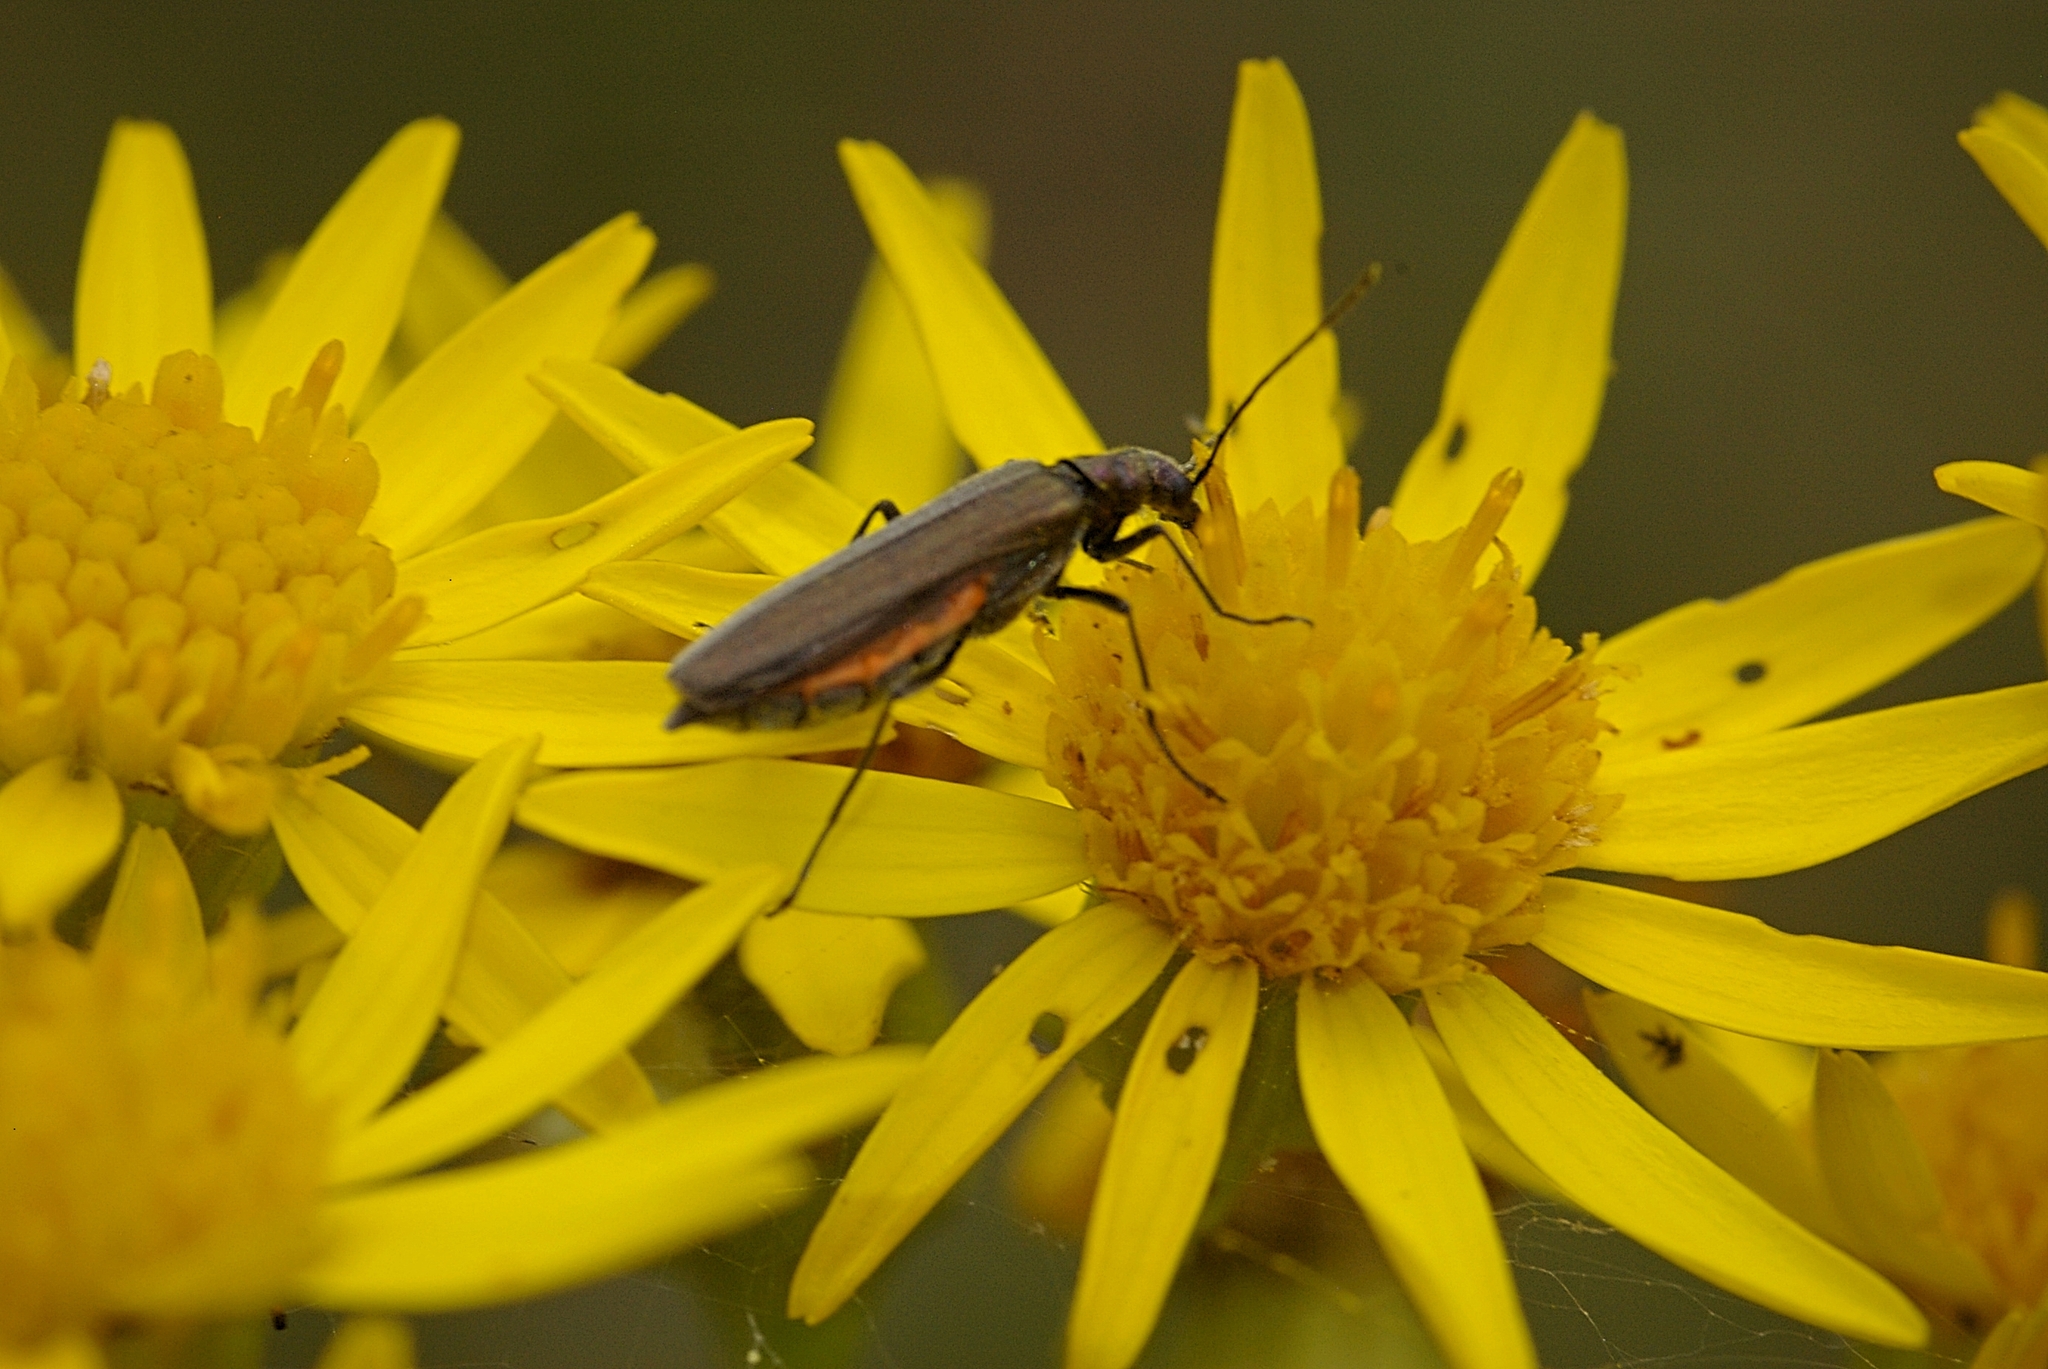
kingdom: Animalia
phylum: Arthropoda
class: Insecta
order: Coleoptera
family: Oedemeridae
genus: Oedemera
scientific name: Oedemera lurida
